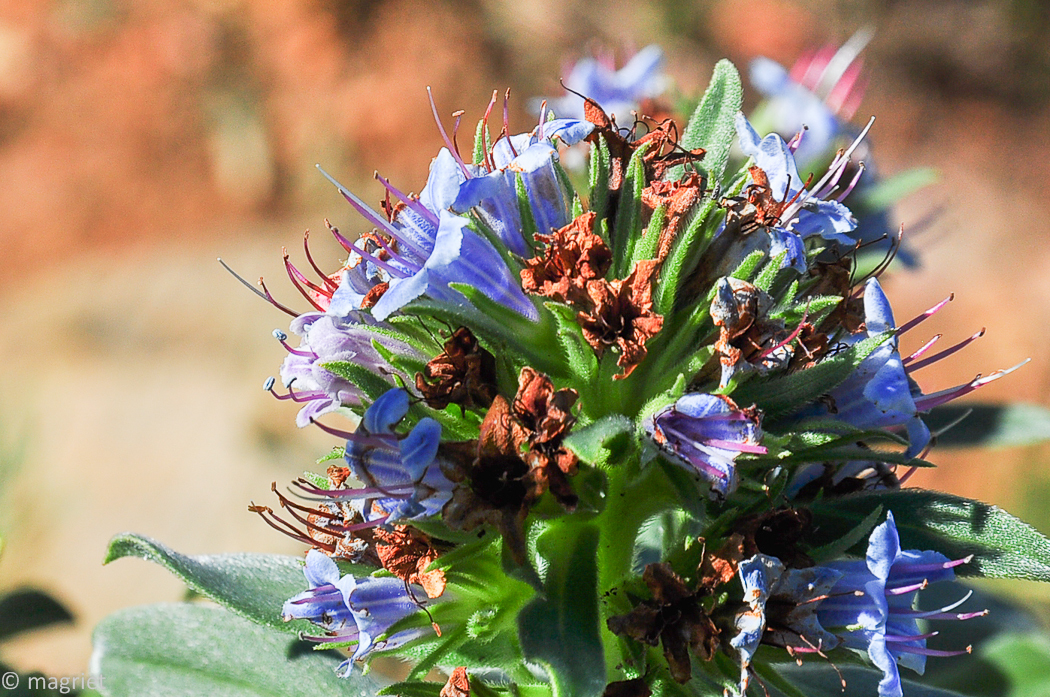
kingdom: Plantae
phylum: Tracheophyta
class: Magnoliopsida
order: Boraginales
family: Boraginaceae
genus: Lobostemon
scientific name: Lobostemon montanus
